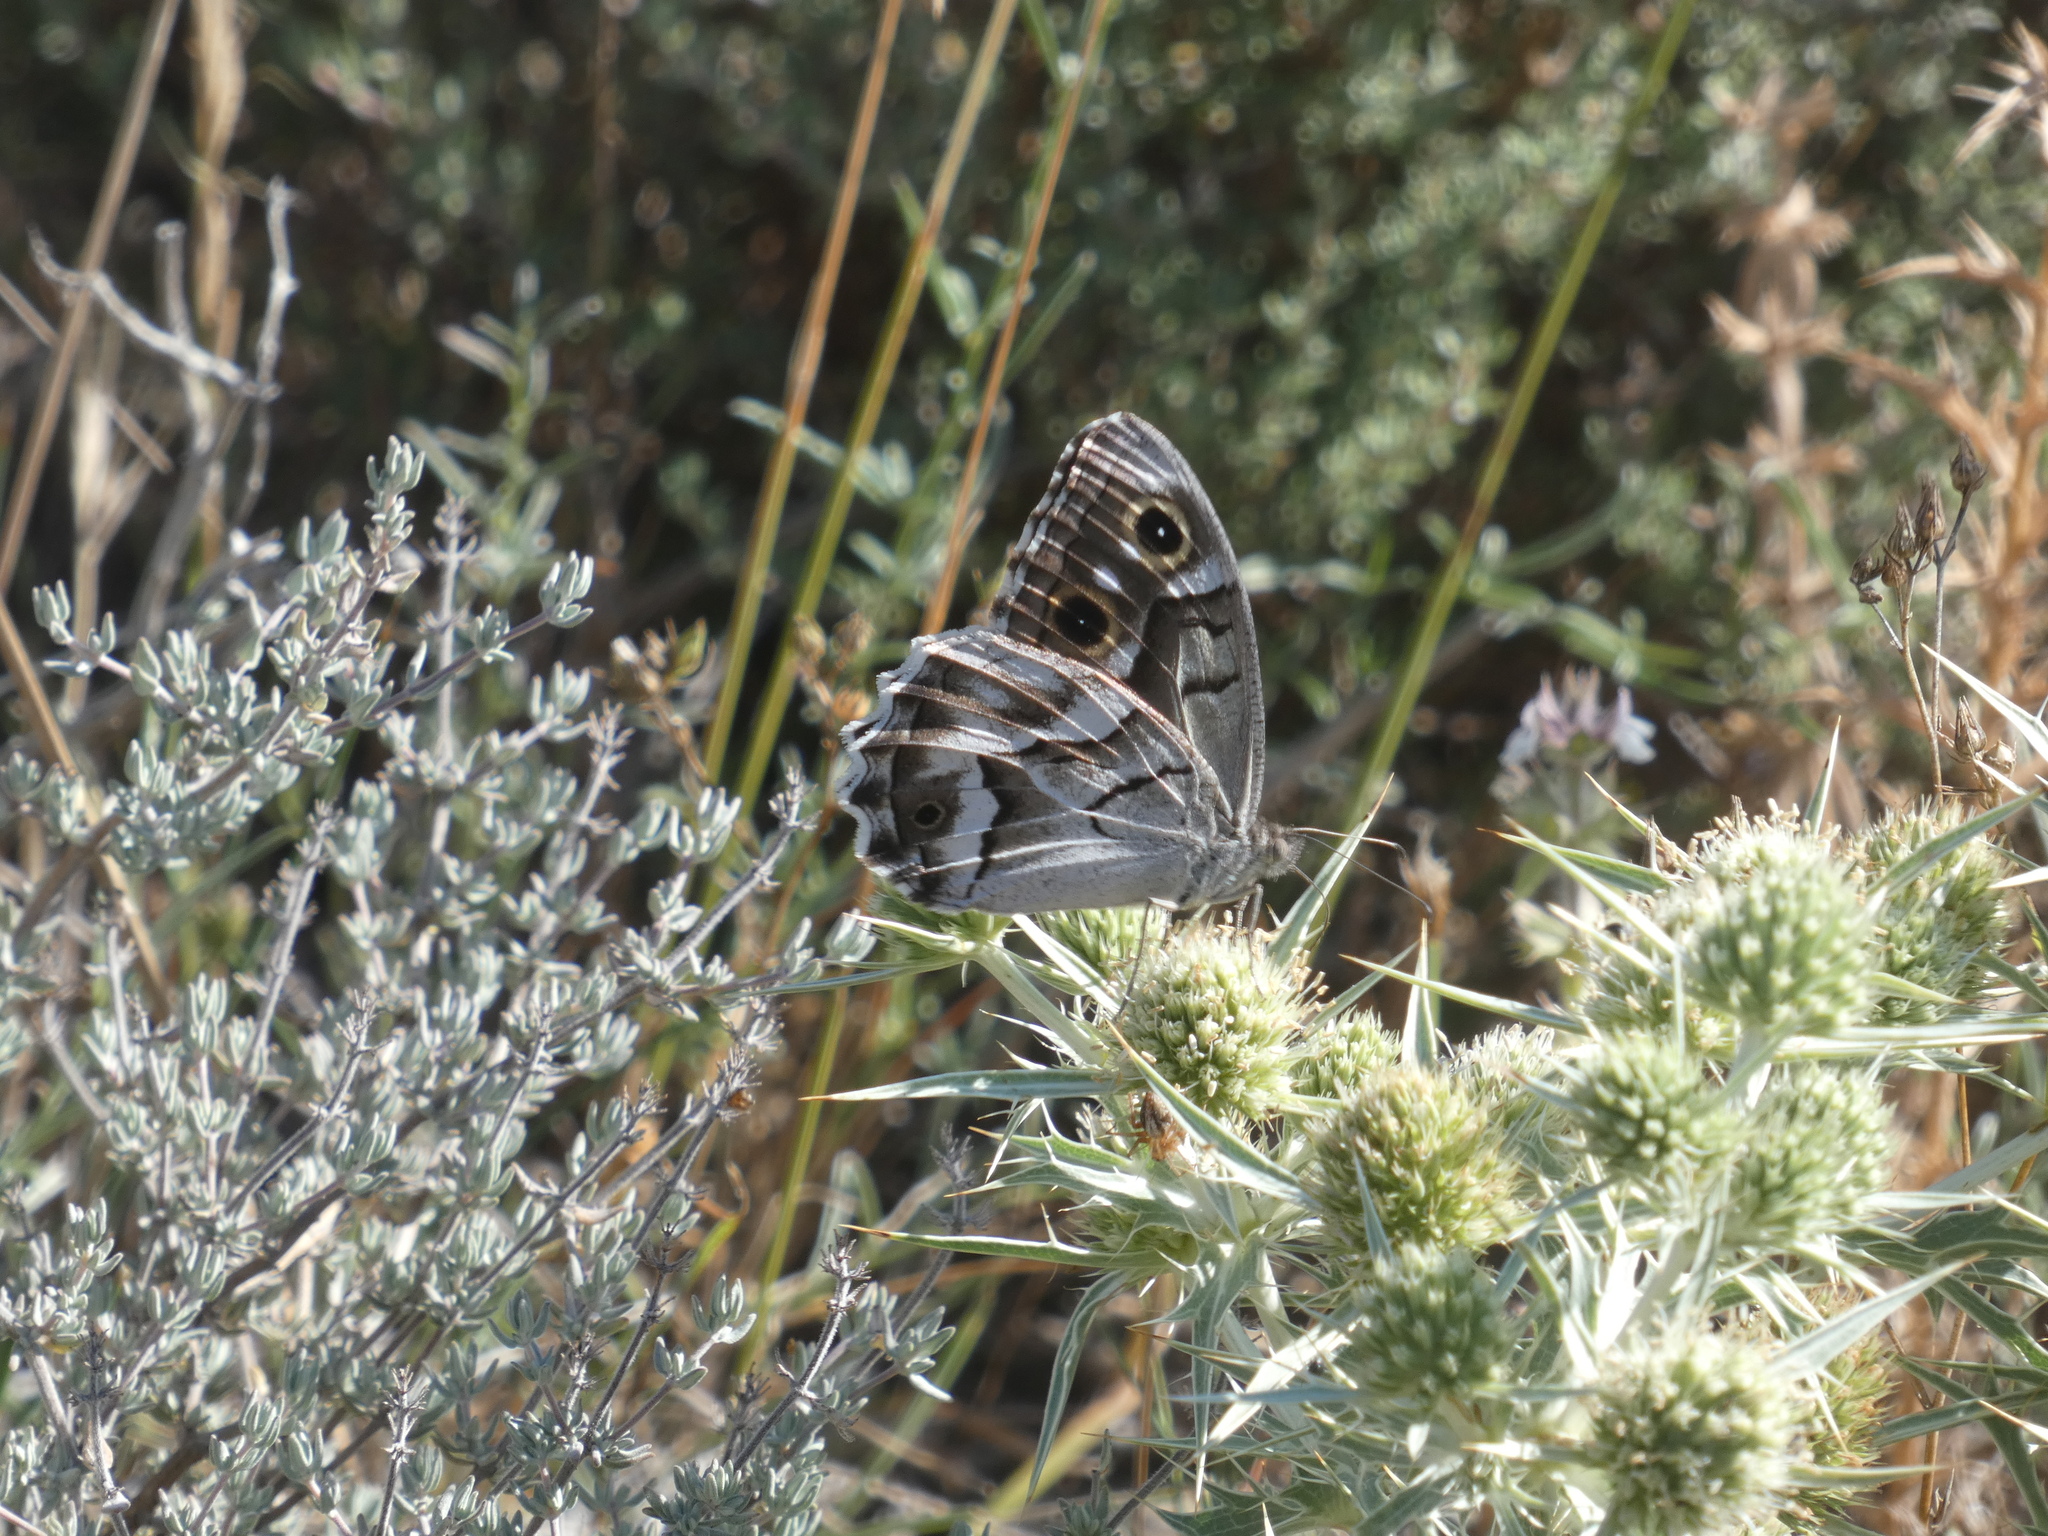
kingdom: Animalia
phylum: Arthropoda
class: Insecta
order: Lepidoptera
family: Nymphalidae
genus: Hipparchia
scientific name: Hipparchia fidia
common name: Striped grayling
